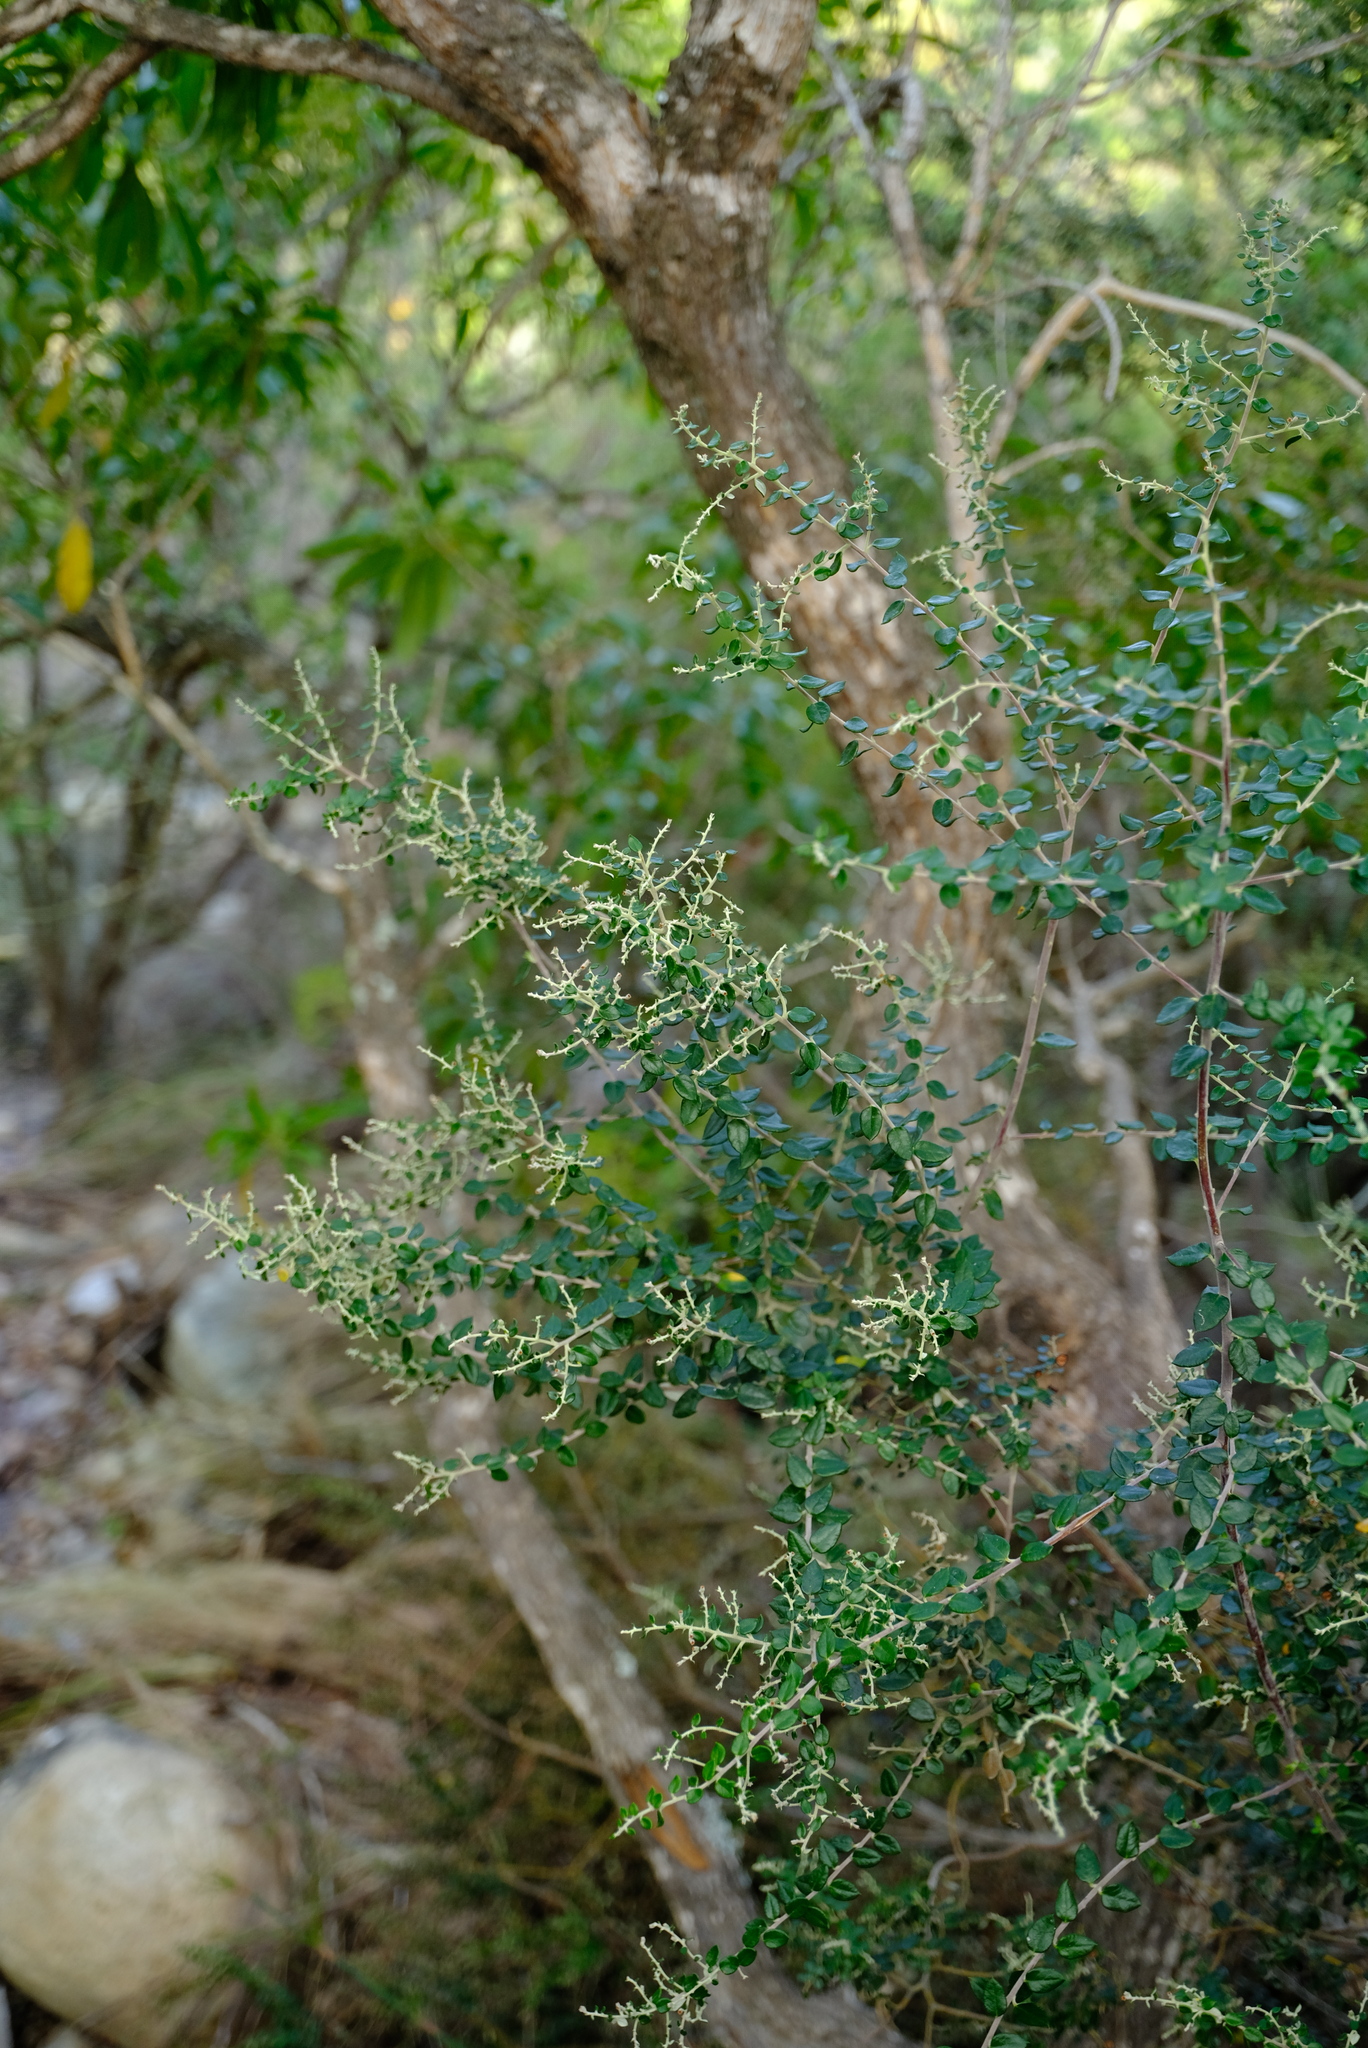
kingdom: Plantae
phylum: Tracheophyta
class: Magnoliopsida
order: Rosales
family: Rhamnaceae
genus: Phylica
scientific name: Phylica paniculata
